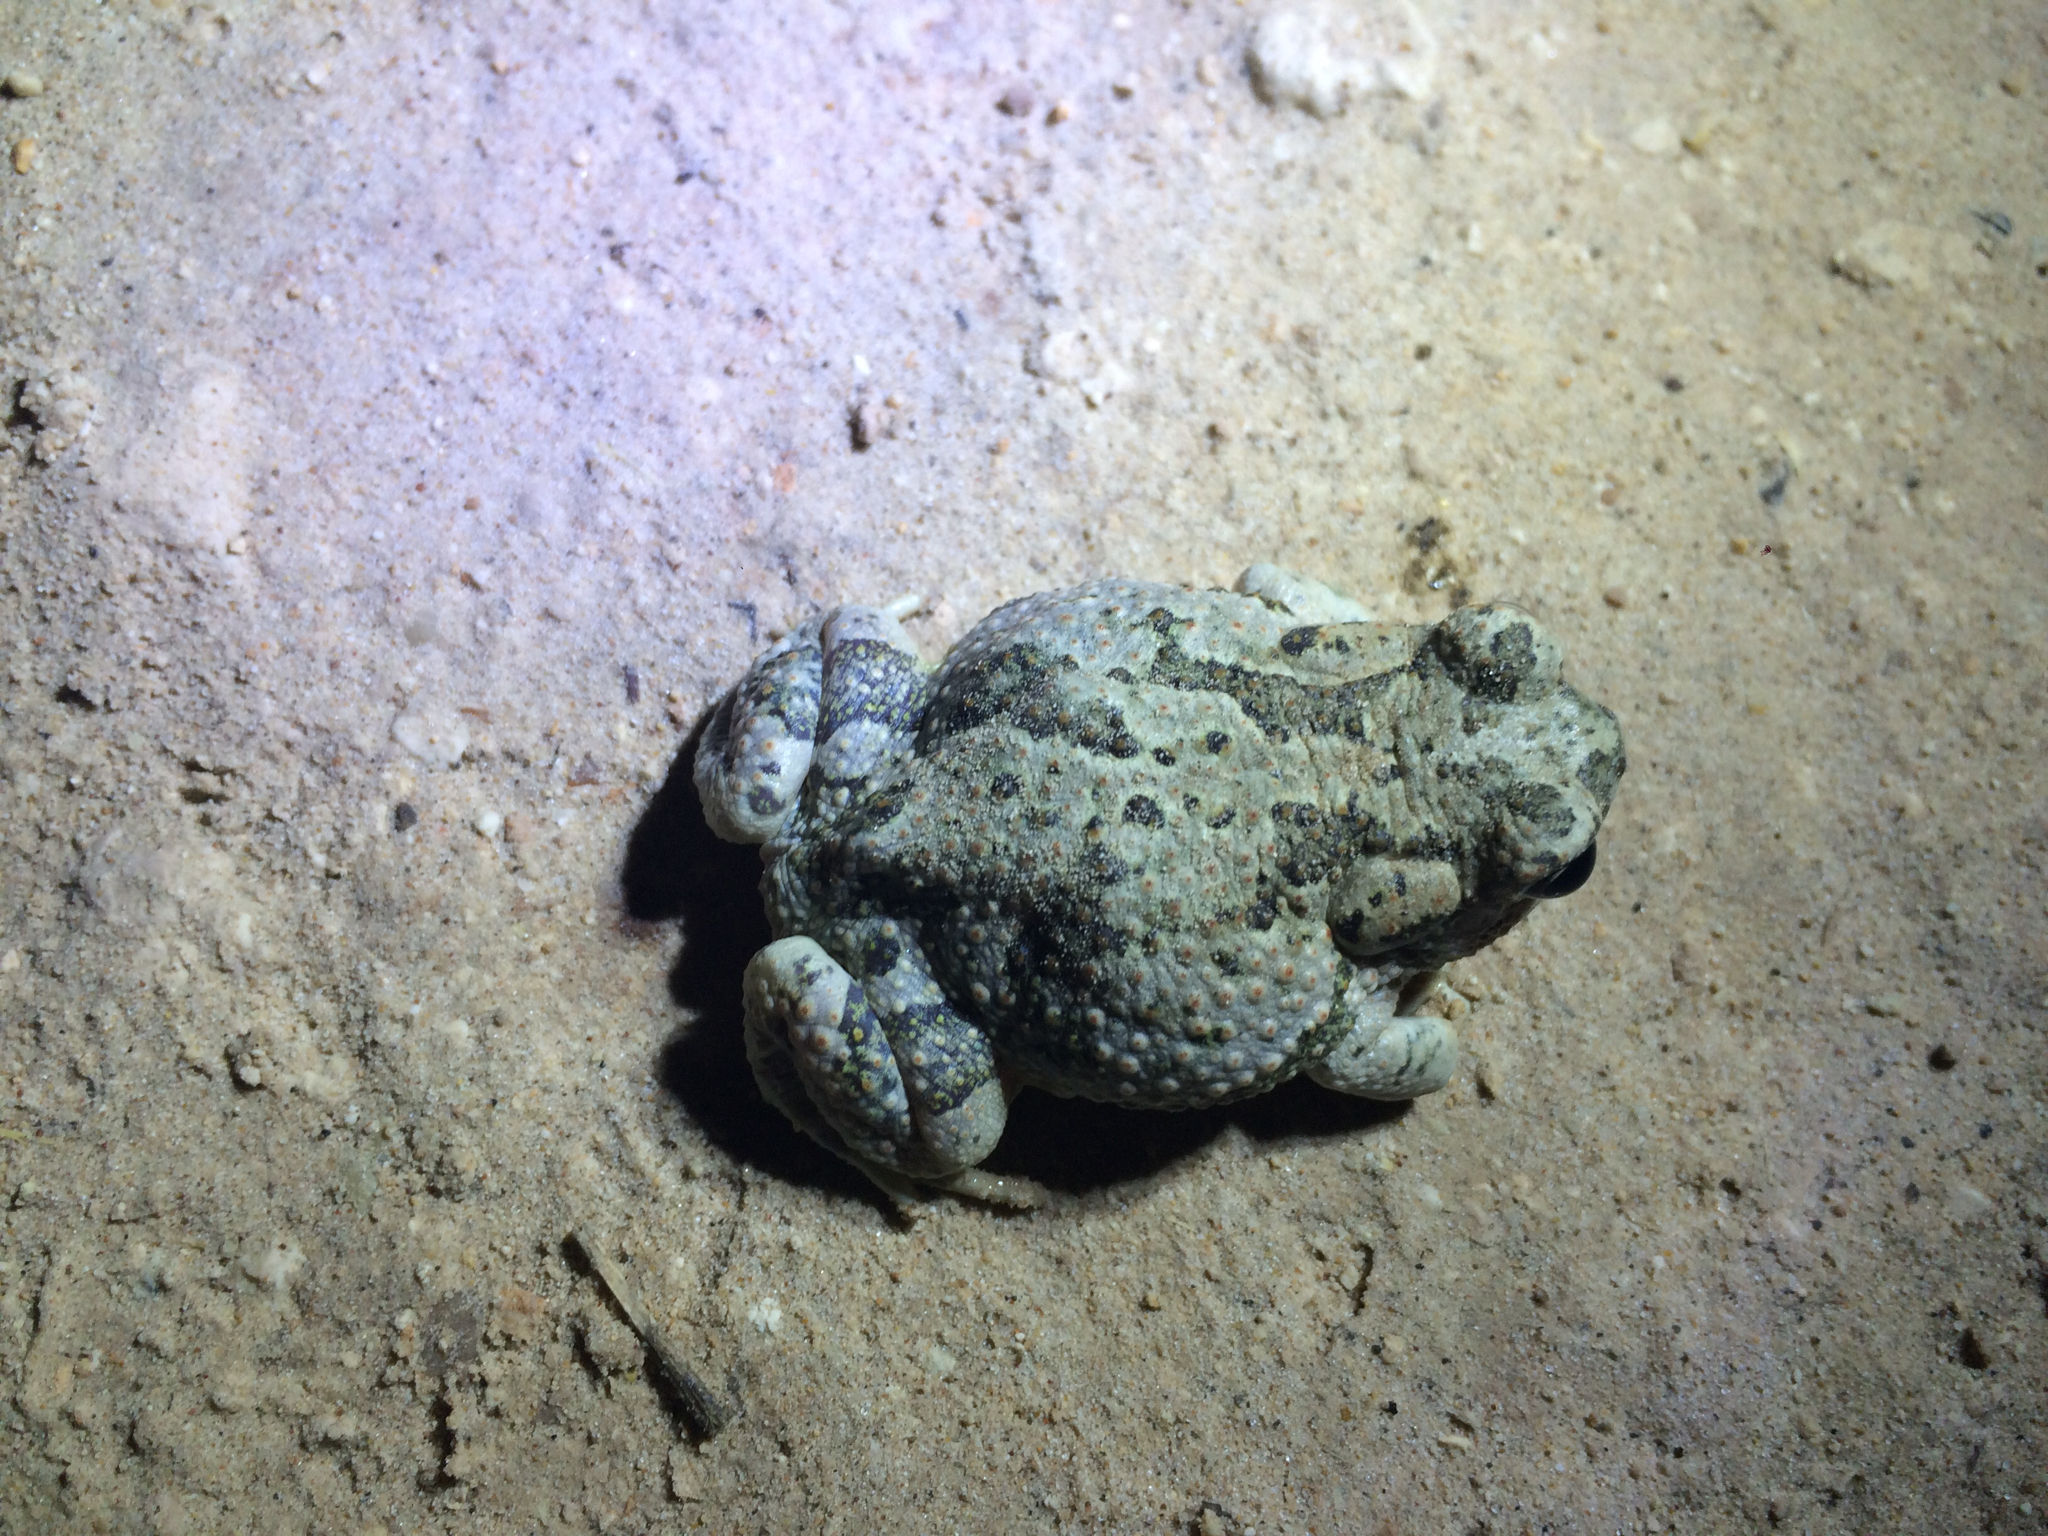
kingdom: Animalia
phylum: Chordata
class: Amphibia
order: Anura
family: Bufonidae
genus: Anaxyrus
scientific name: Anaxyrus speciosus
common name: Texas toad
